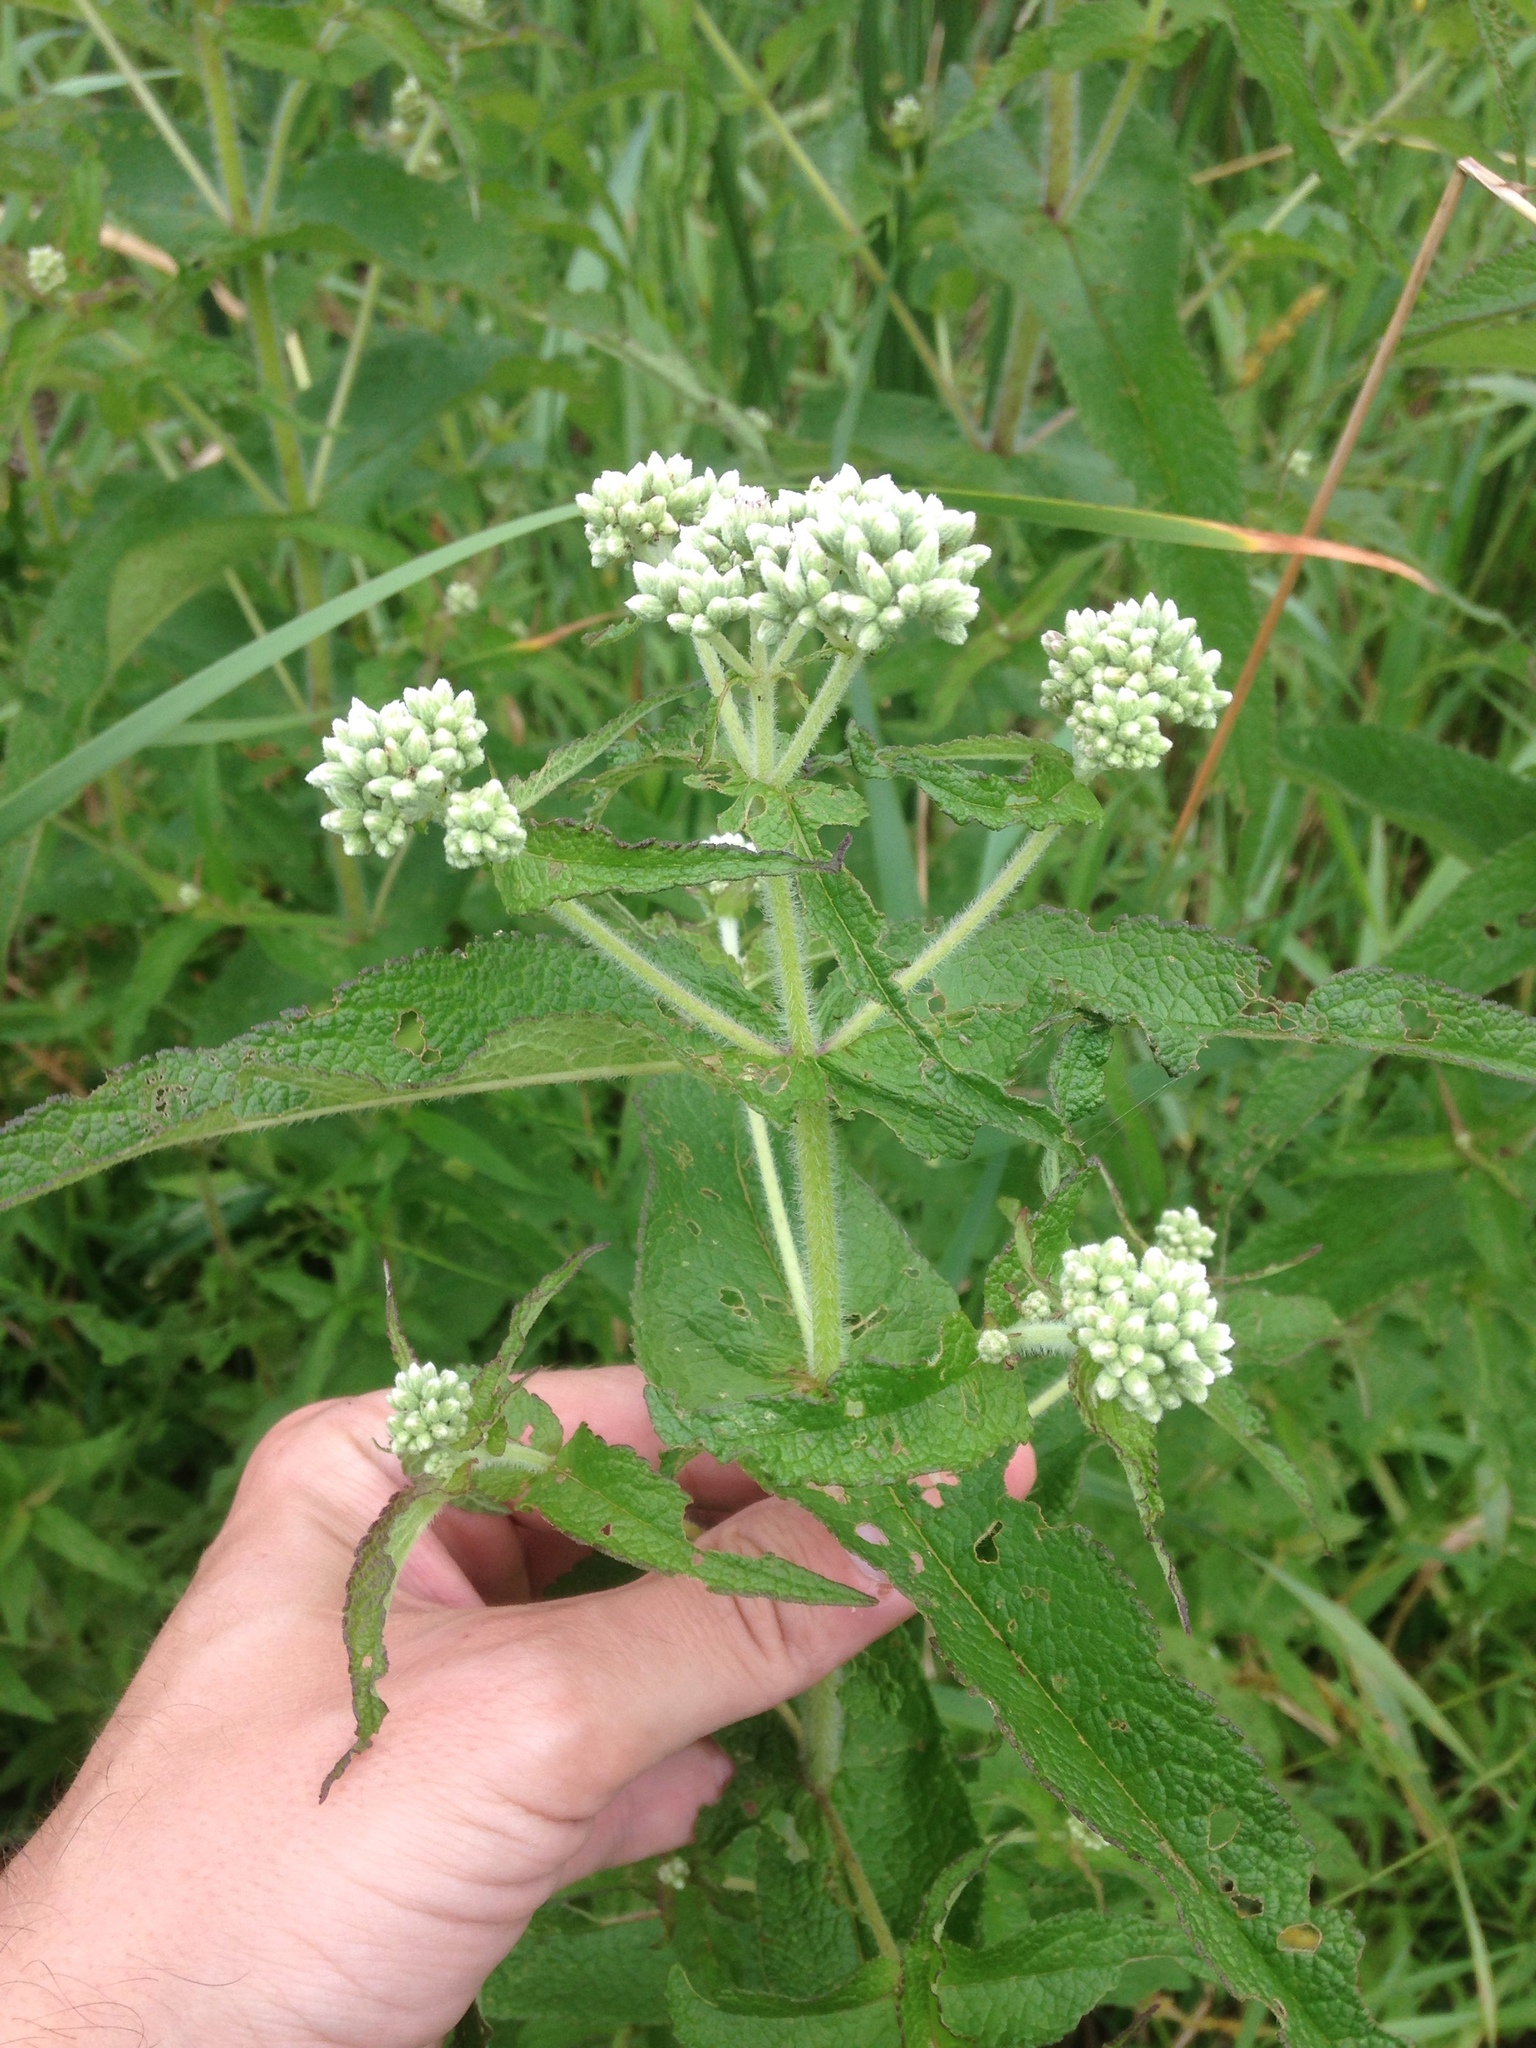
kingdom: Plantae
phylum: Tracheophyta
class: Magnoliopsida
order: Asterales
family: Asteraceae
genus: Eupatorium
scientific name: Eupatorium perfoliatum
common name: Boneset
